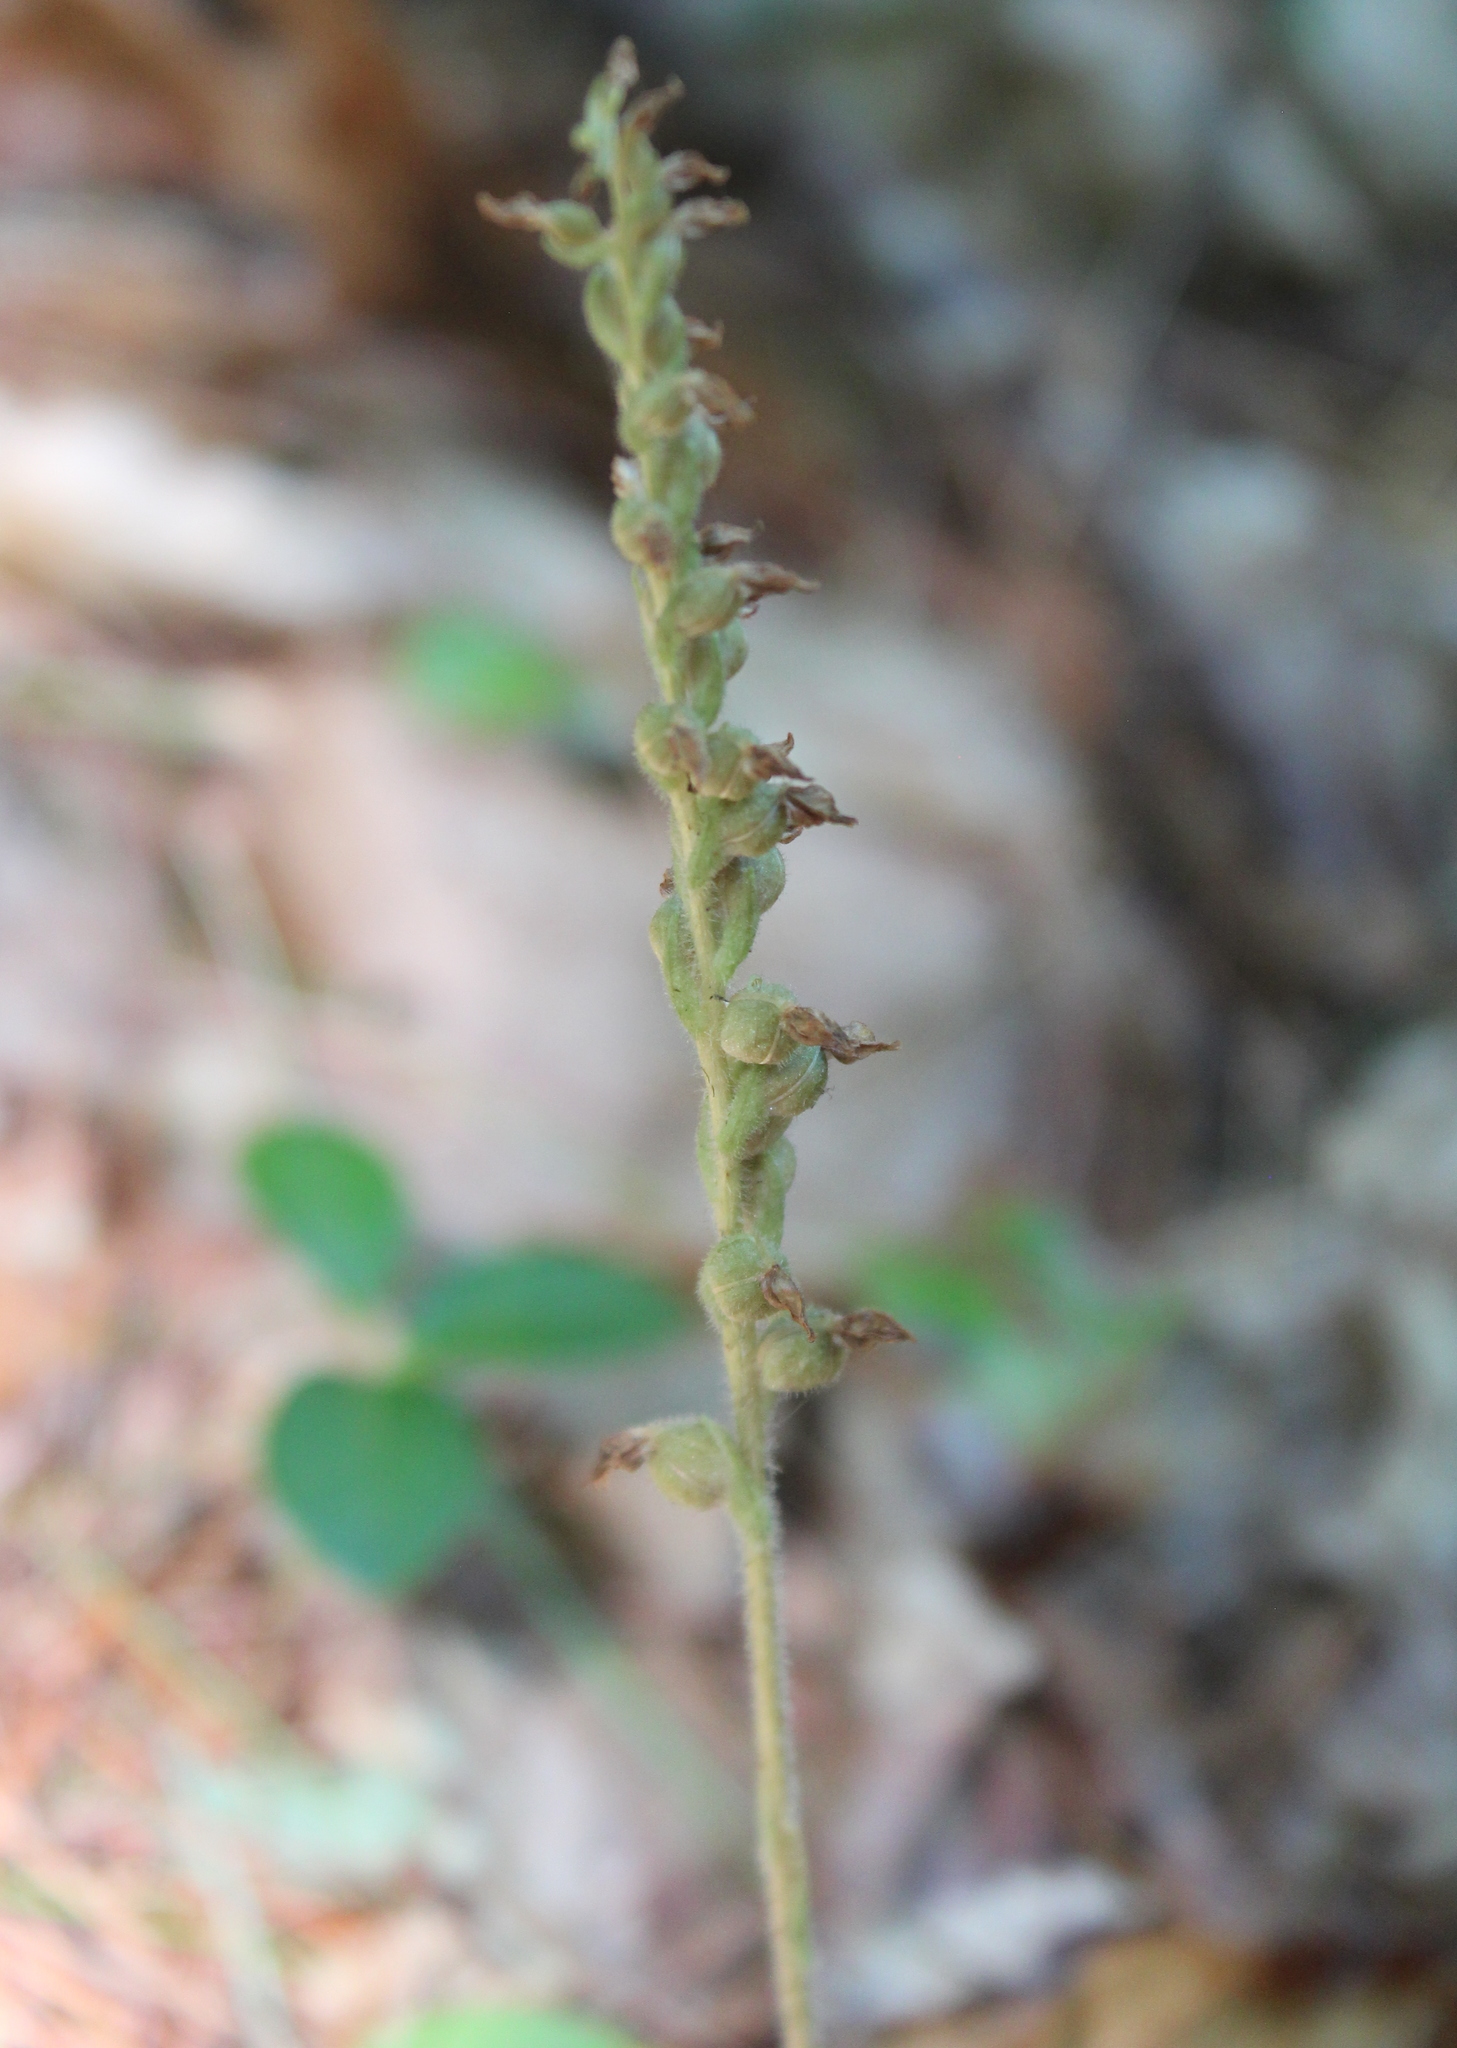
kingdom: Plantae
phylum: Tracheophyta
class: Liliopsida
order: Asparagales
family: Orchidaceae
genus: Goodyera
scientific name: Goodyera tesselata
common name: Checkered rattlesnake-plantain
